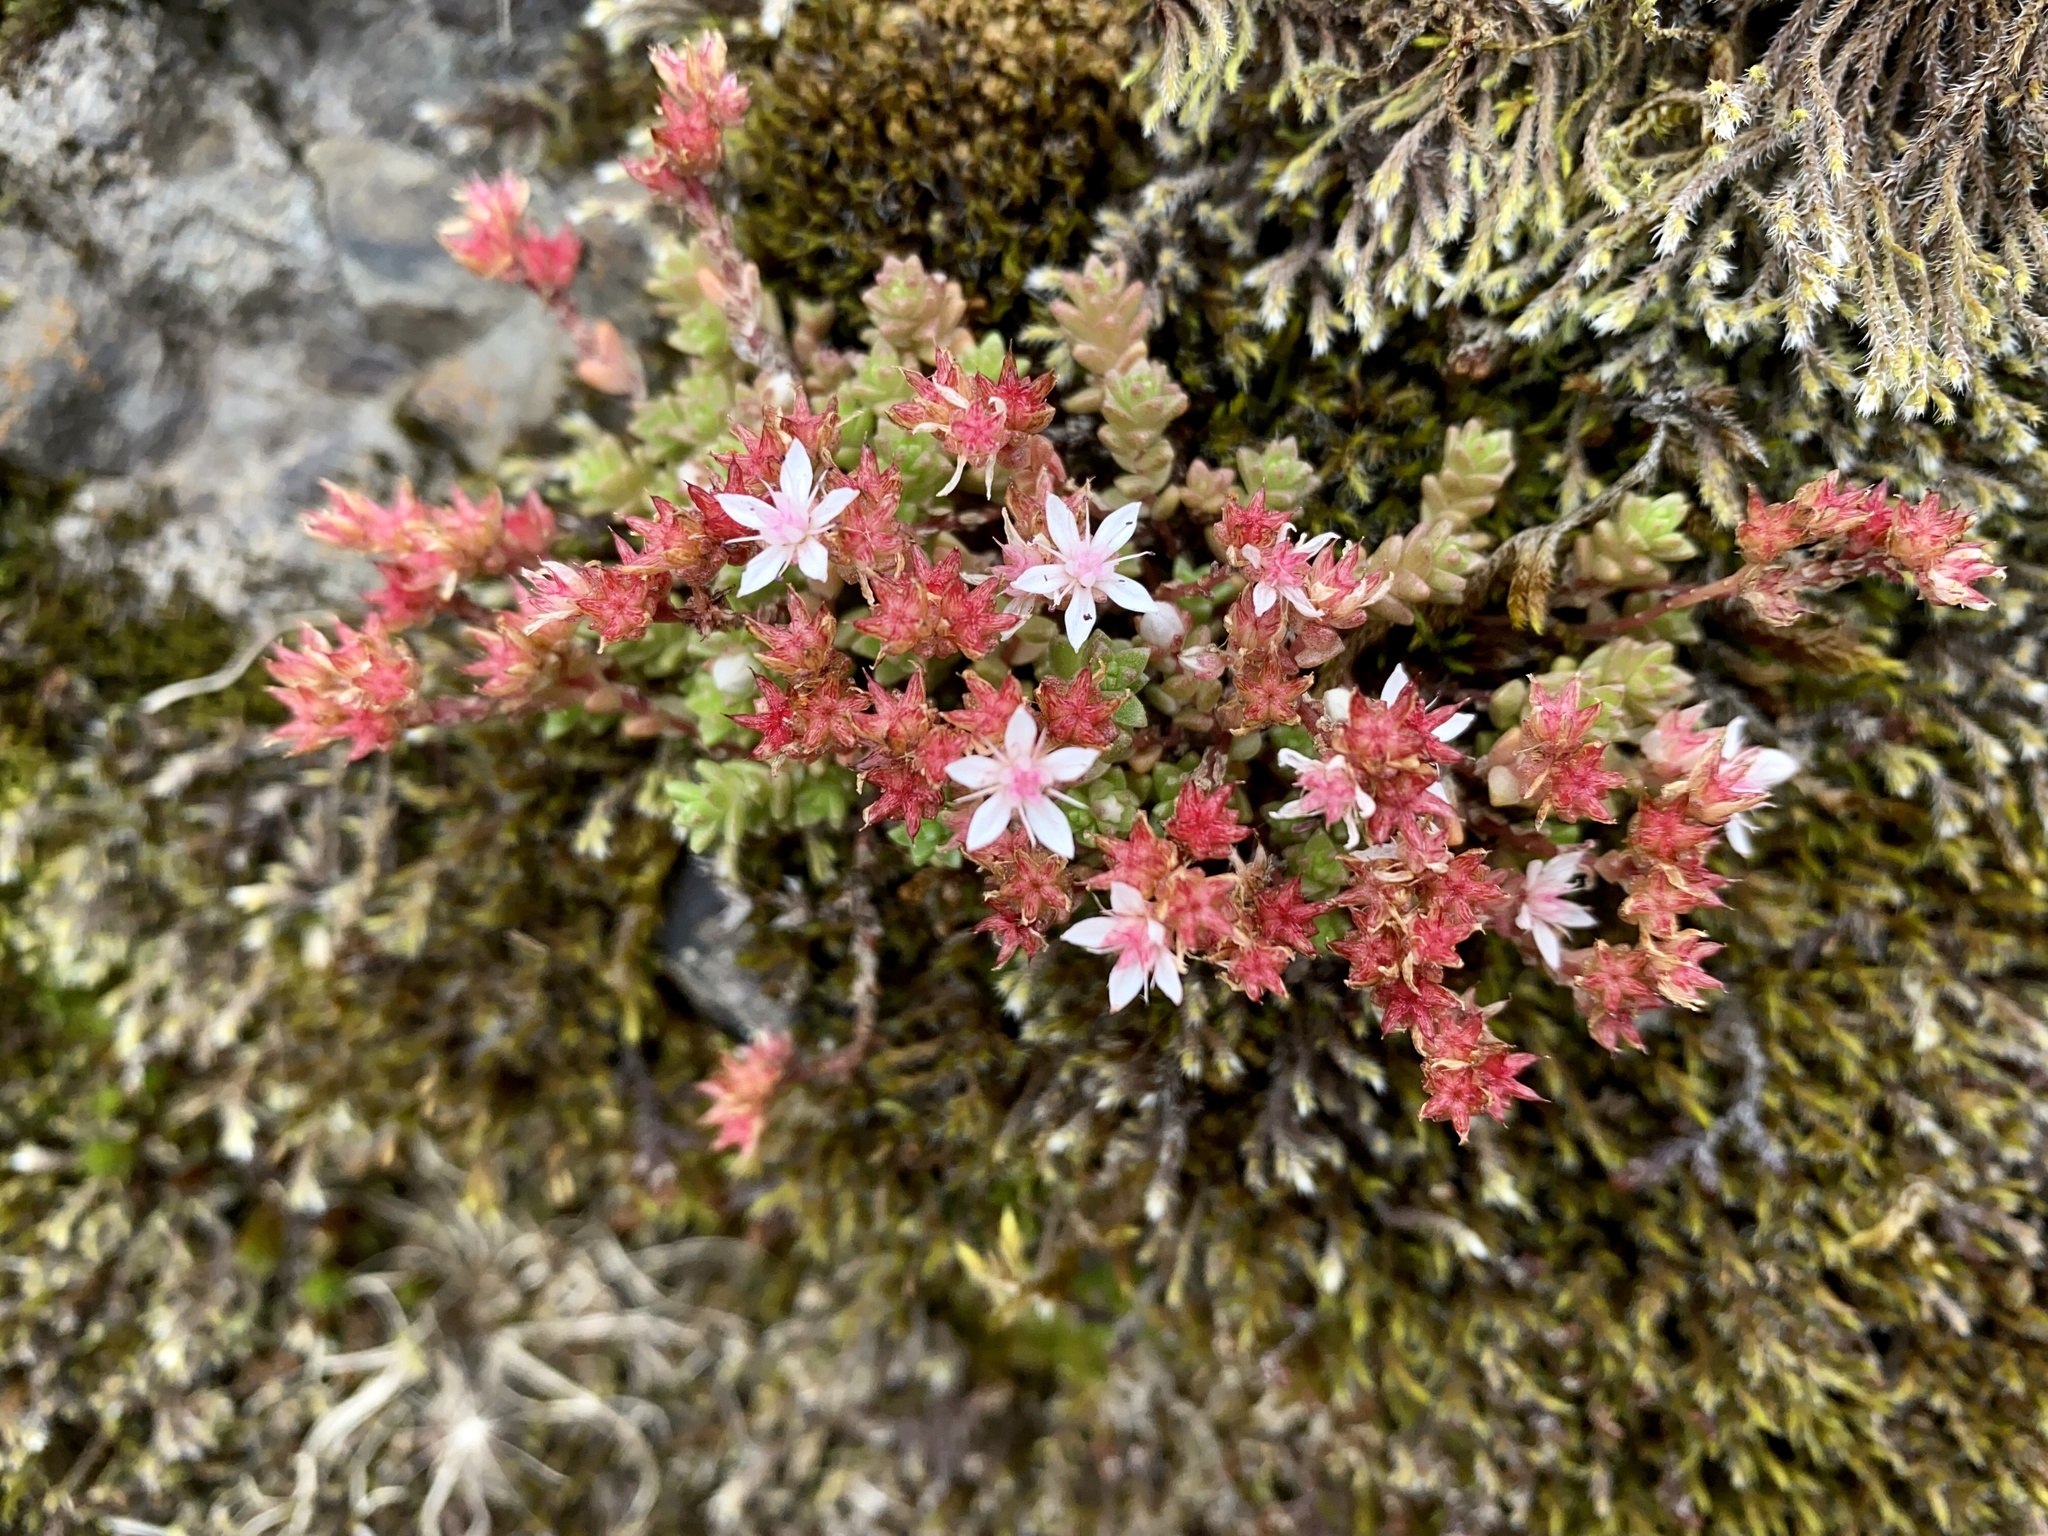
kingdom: Plantae
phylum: Tracheophyta
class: Magnoliopsida
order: Saxifragales
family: Crassulaceae
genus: Sedum
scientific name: Sedum anglicum
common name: English stonecrop
